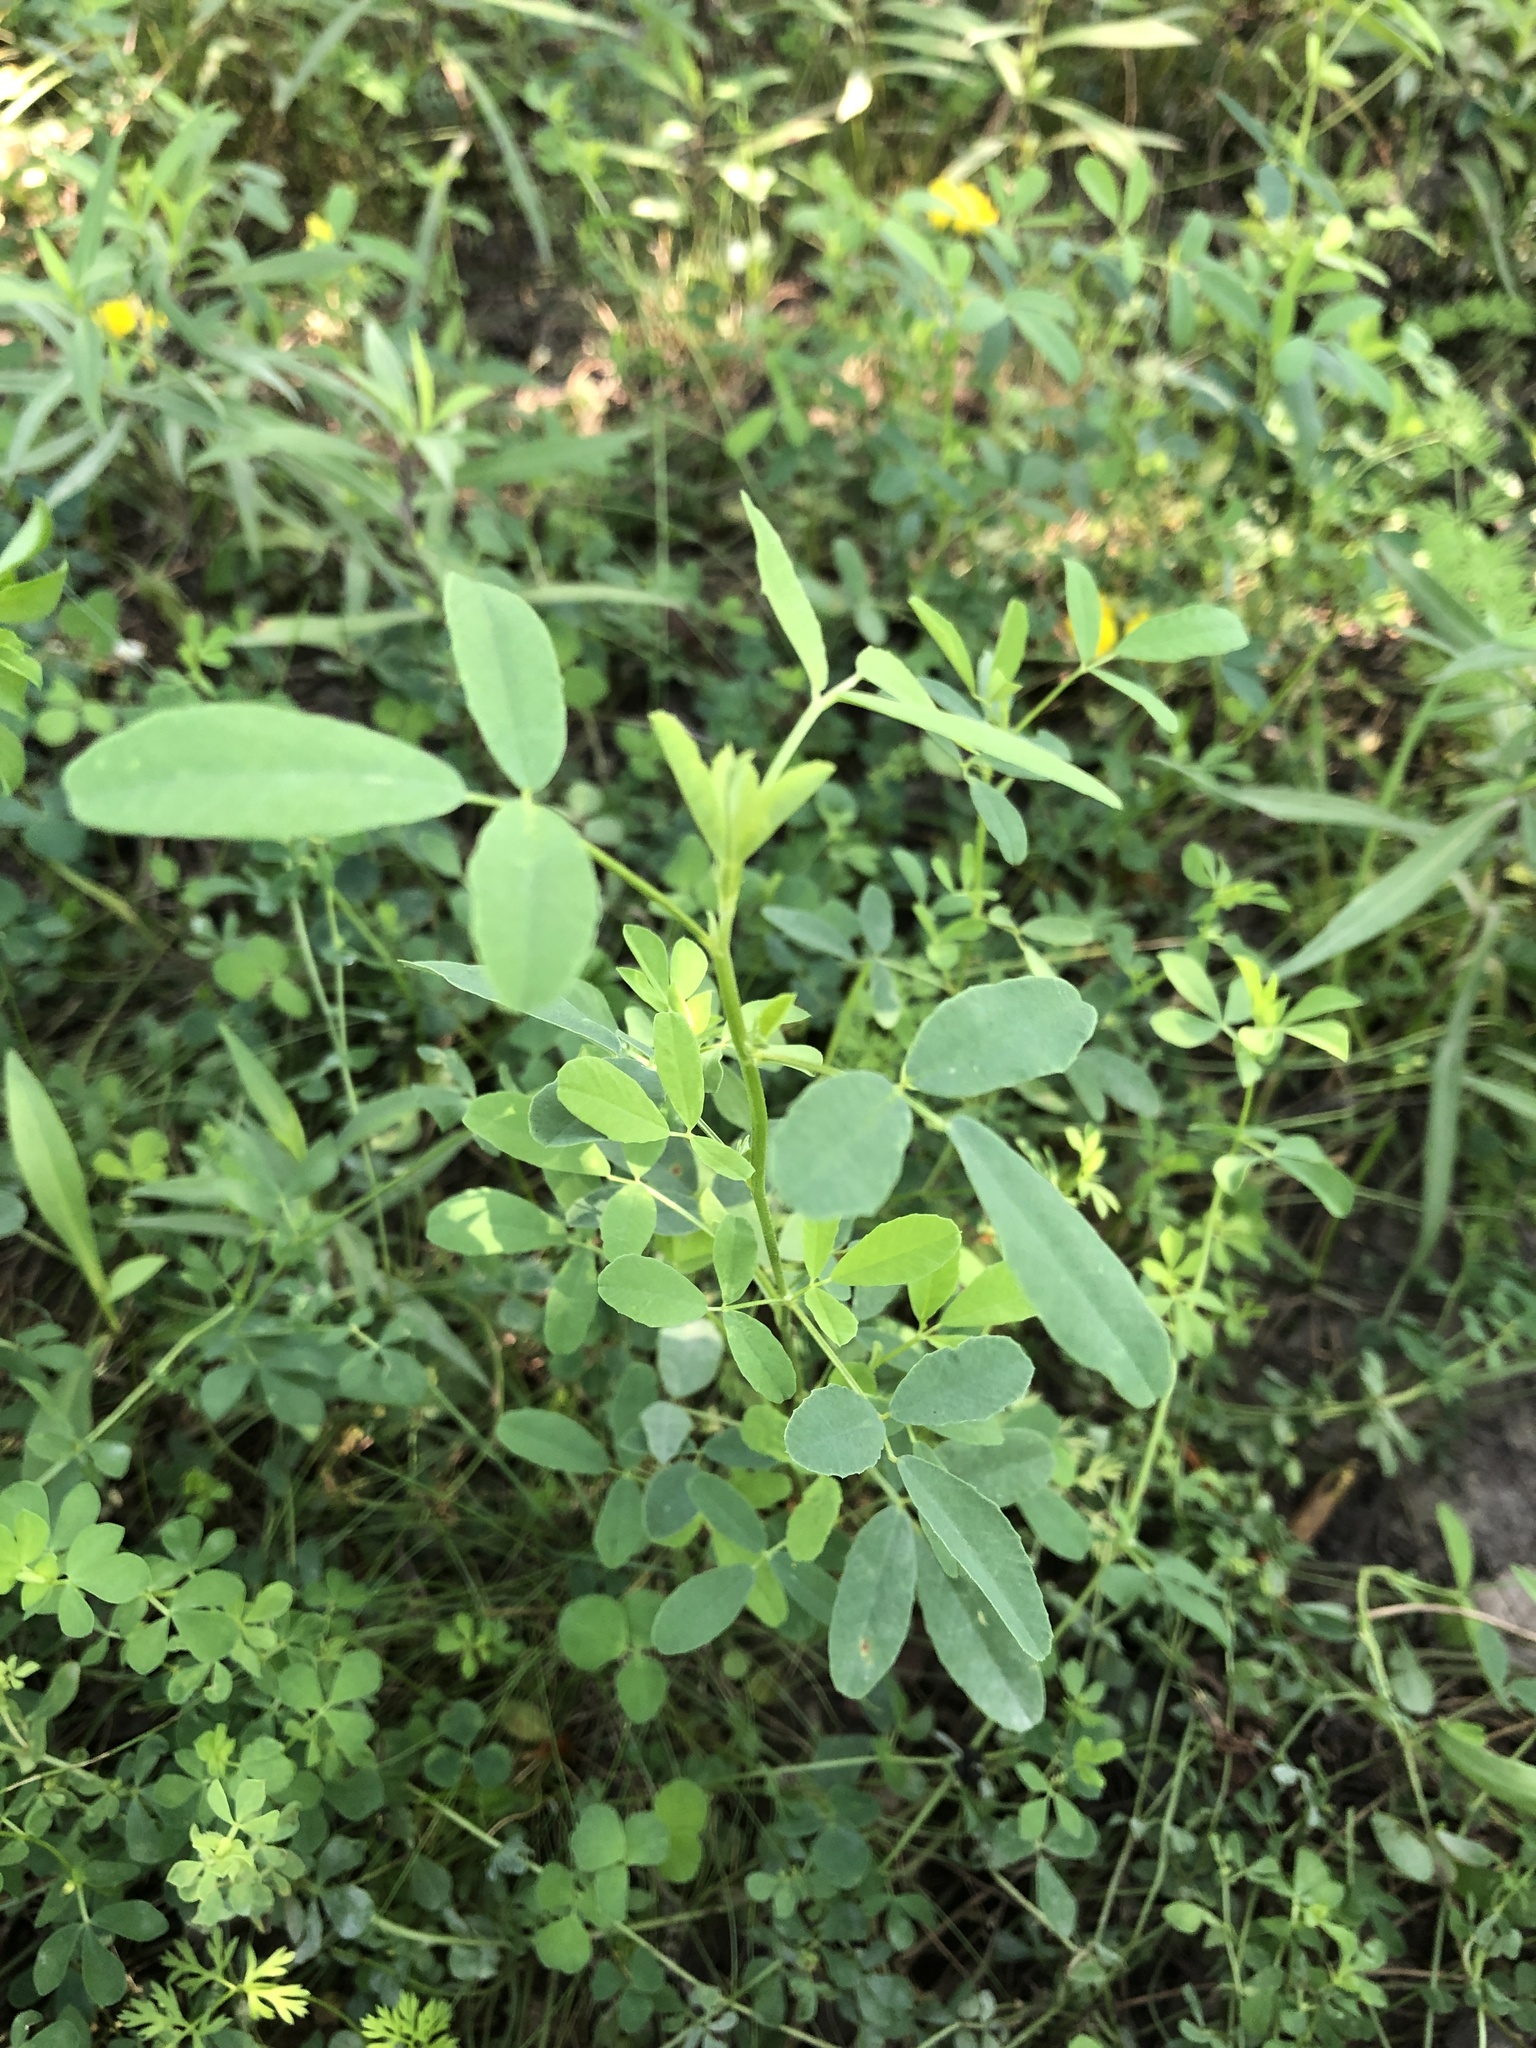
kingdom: Plantae
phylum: Tracheophyta
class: Magnoliopsida
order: Fabales
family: Fabaceae
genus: Melilotus
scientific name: Melilotus albus
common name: White melilot
